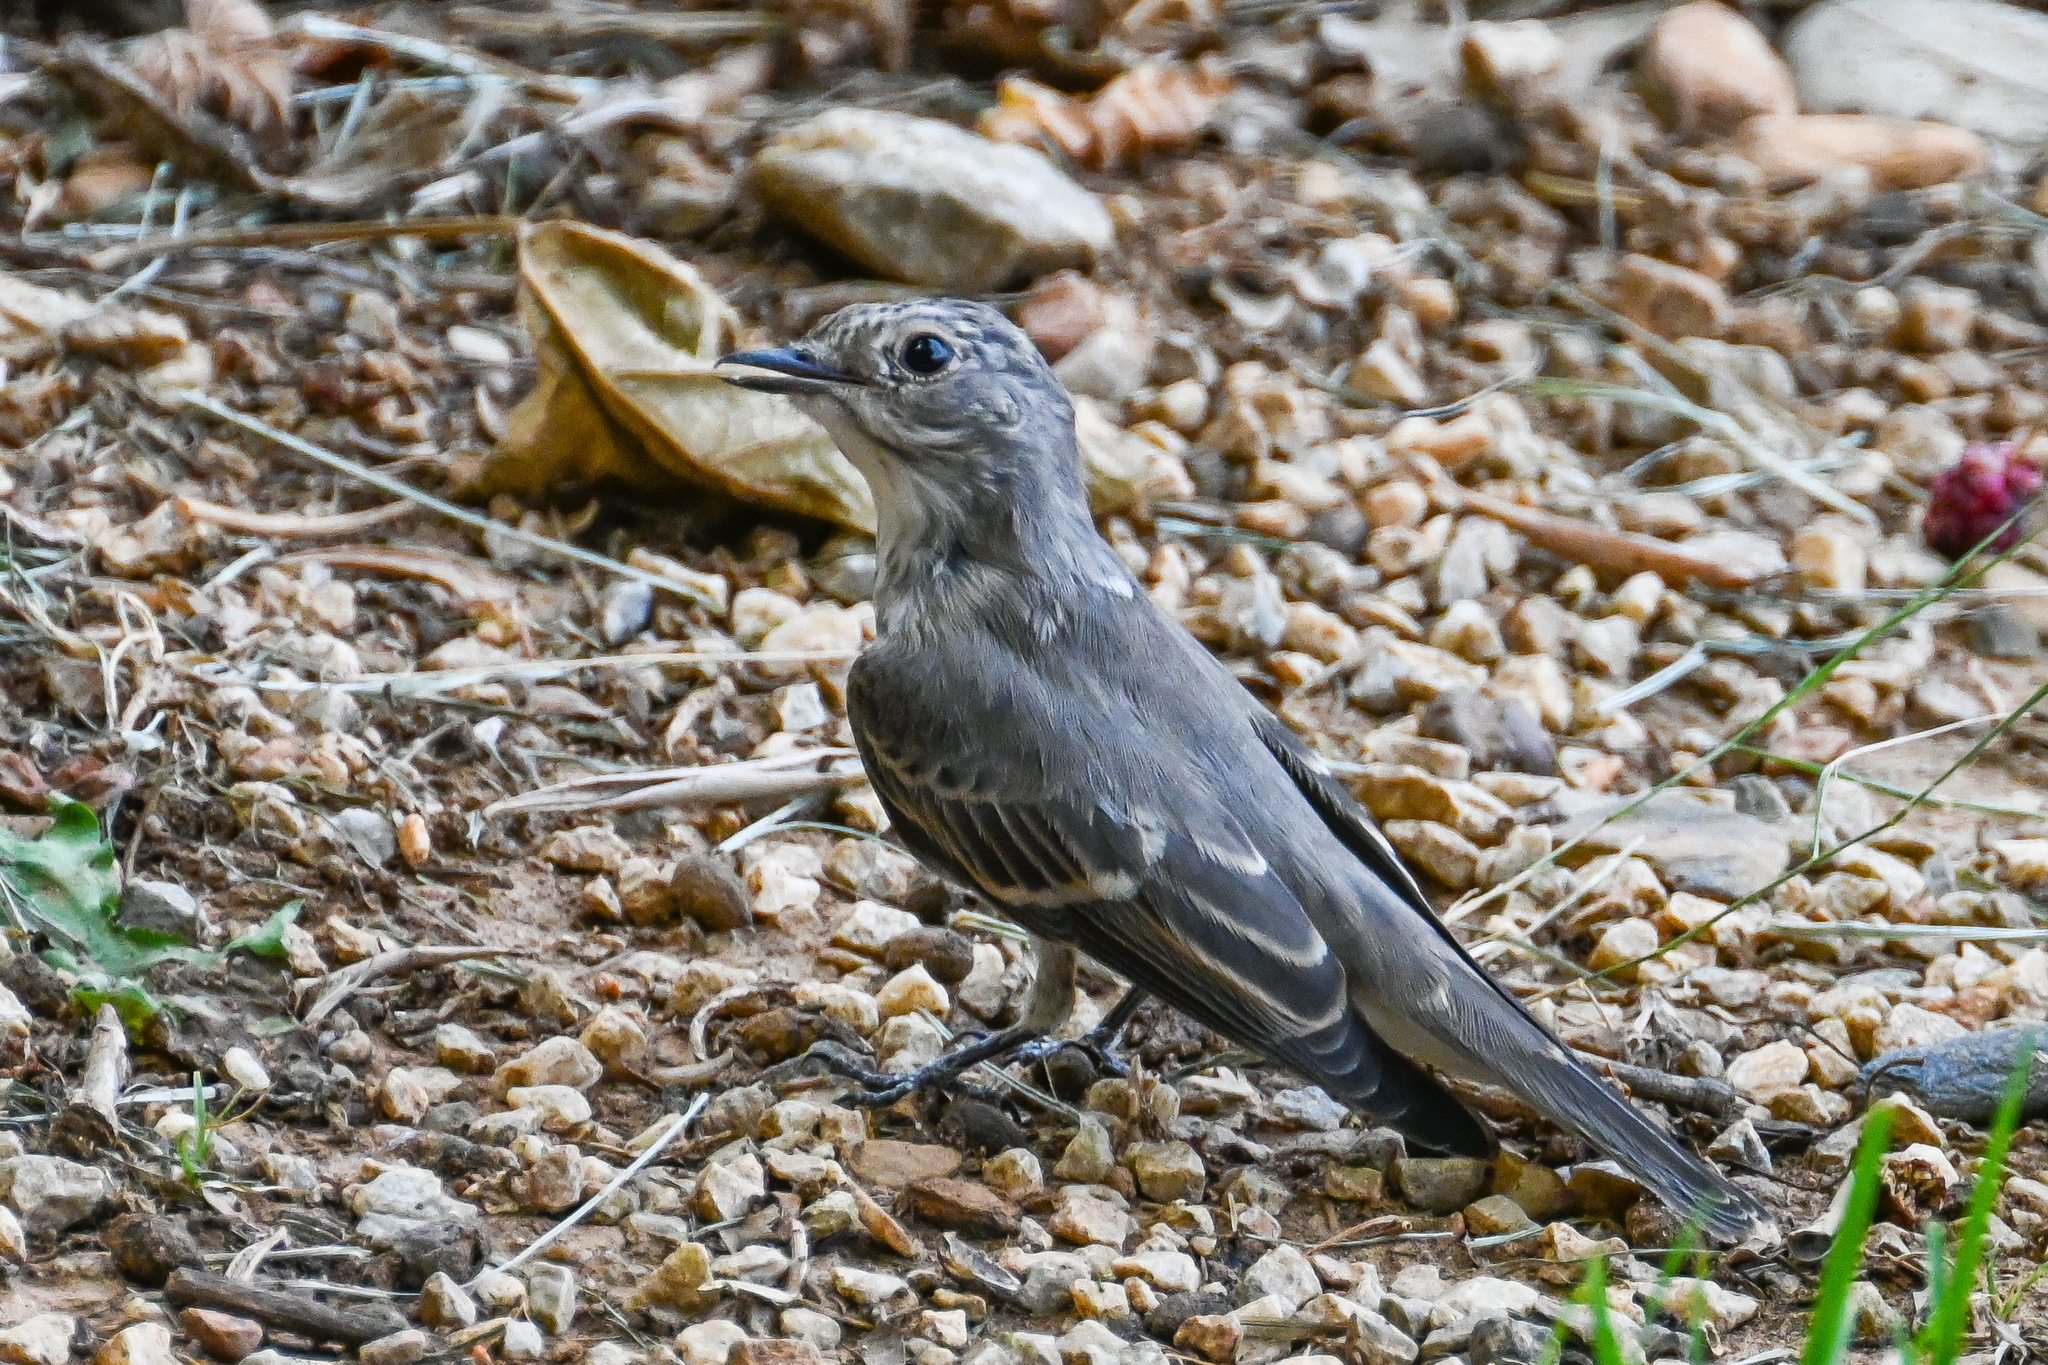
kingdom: Animalia
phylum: Chordata
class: Aves
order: Passeriformes
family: Muscicapidae
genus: Muscicapa
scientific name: Muscicapa striata
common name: Spotted flycatcher
